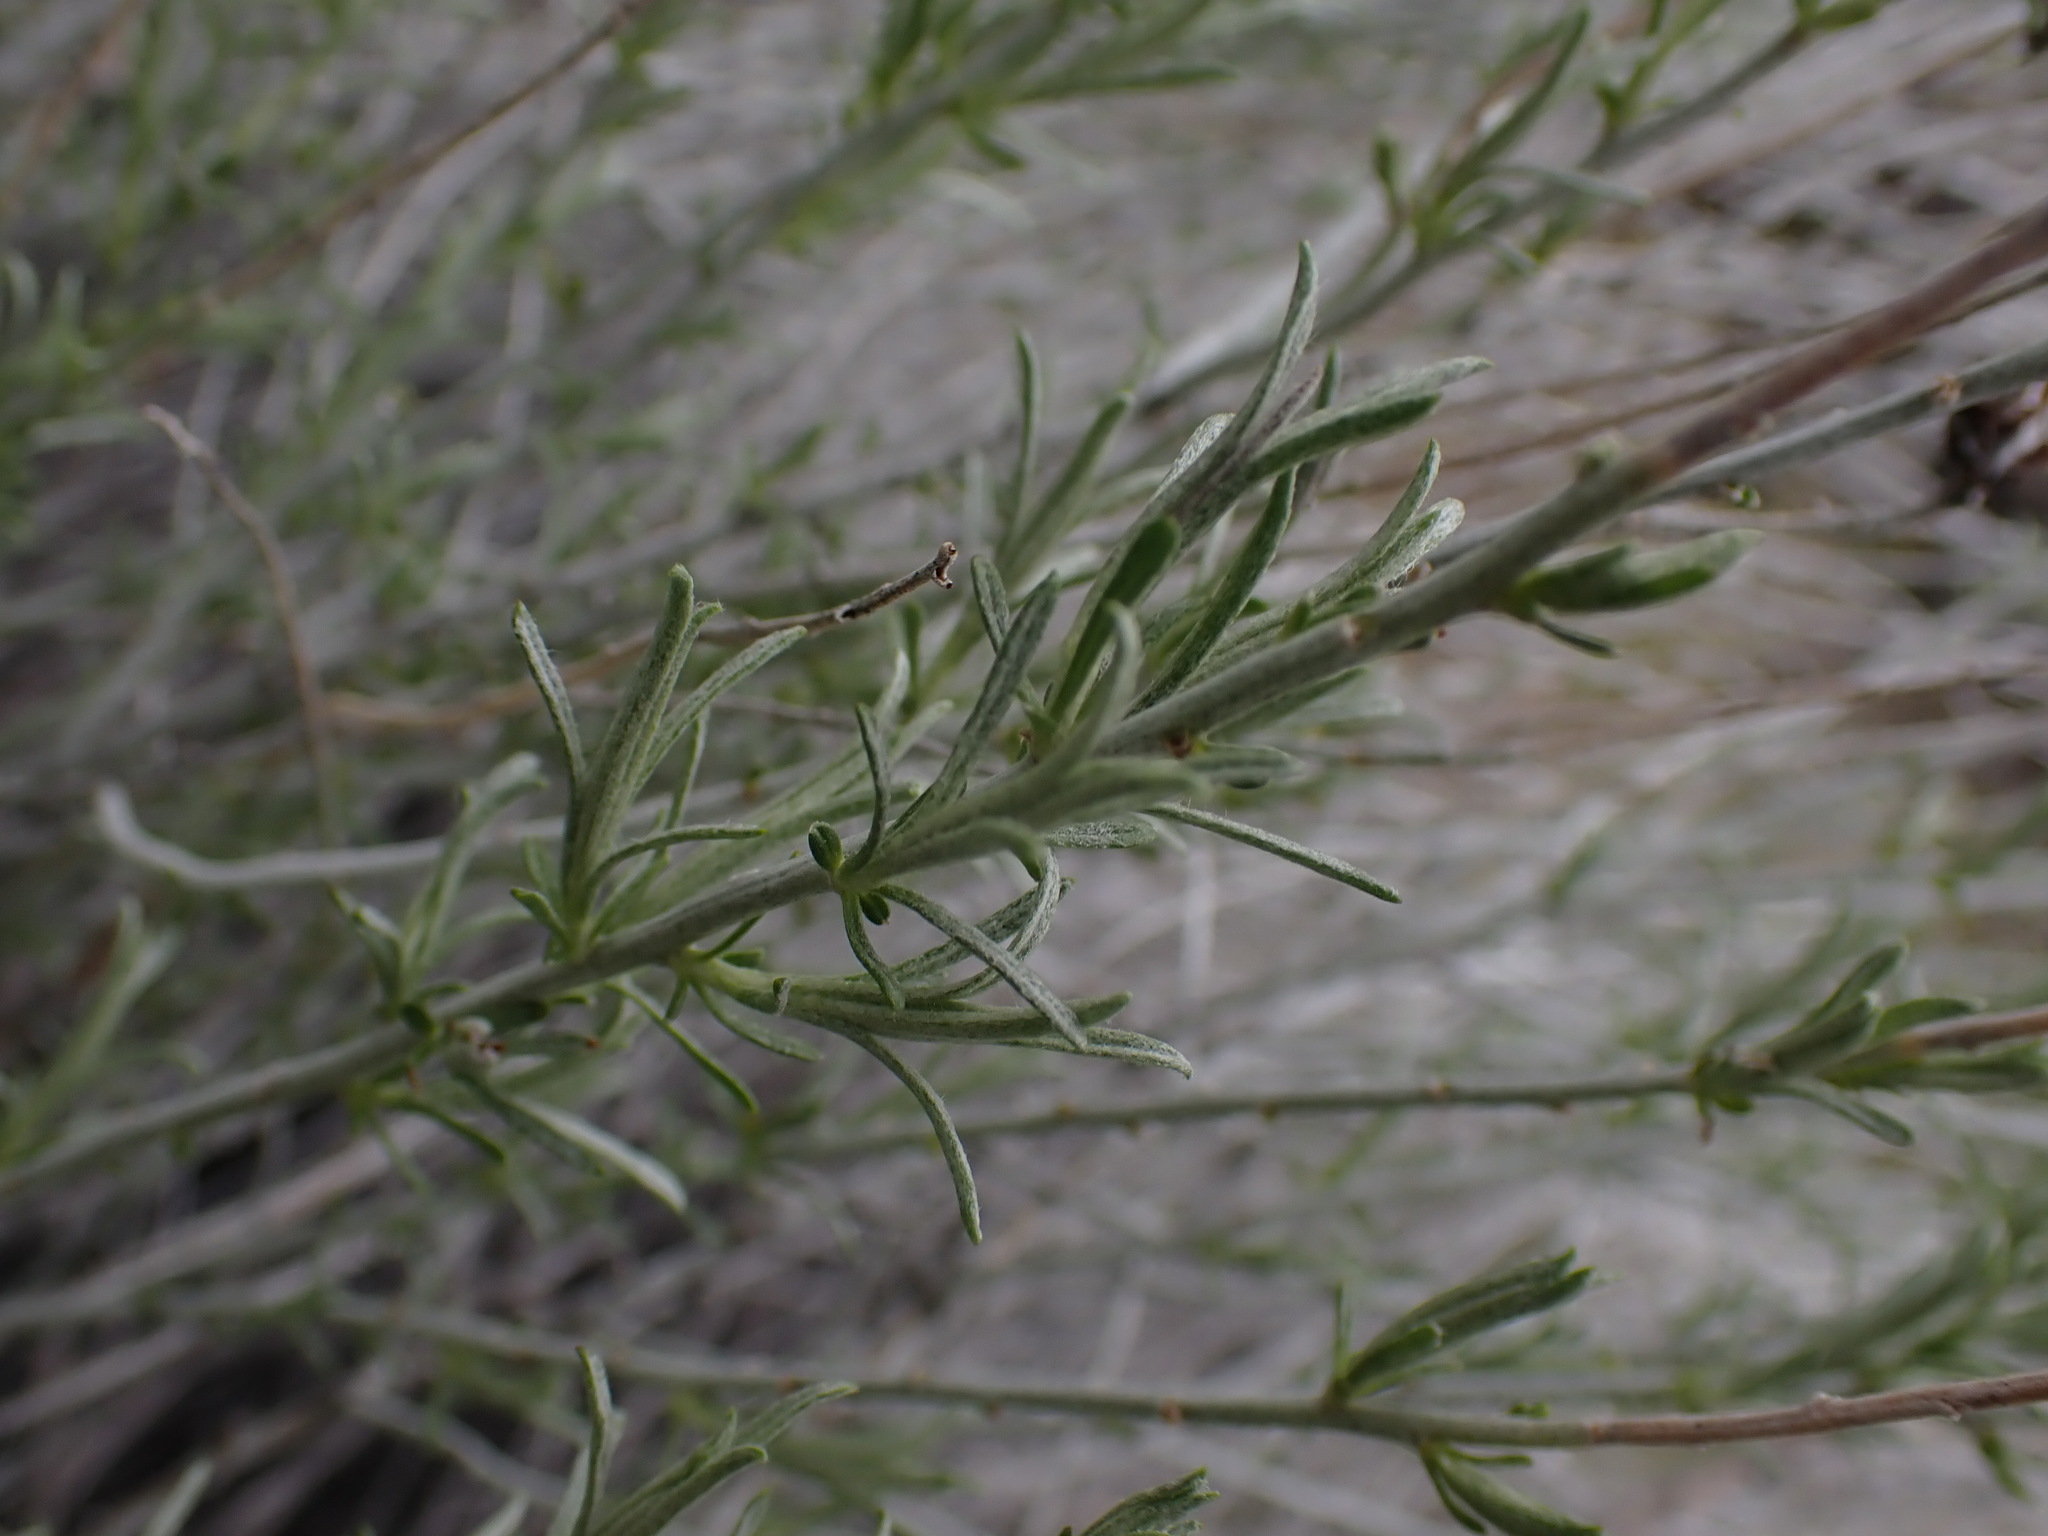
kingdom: Plantae
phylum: Tracheophyta
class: Magnoliopsida
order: Asterales
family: Asteraceae
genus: Chrysothamnus
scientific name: Chrysothamnus viscidiflorus
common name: Yellow rabbitbrush
